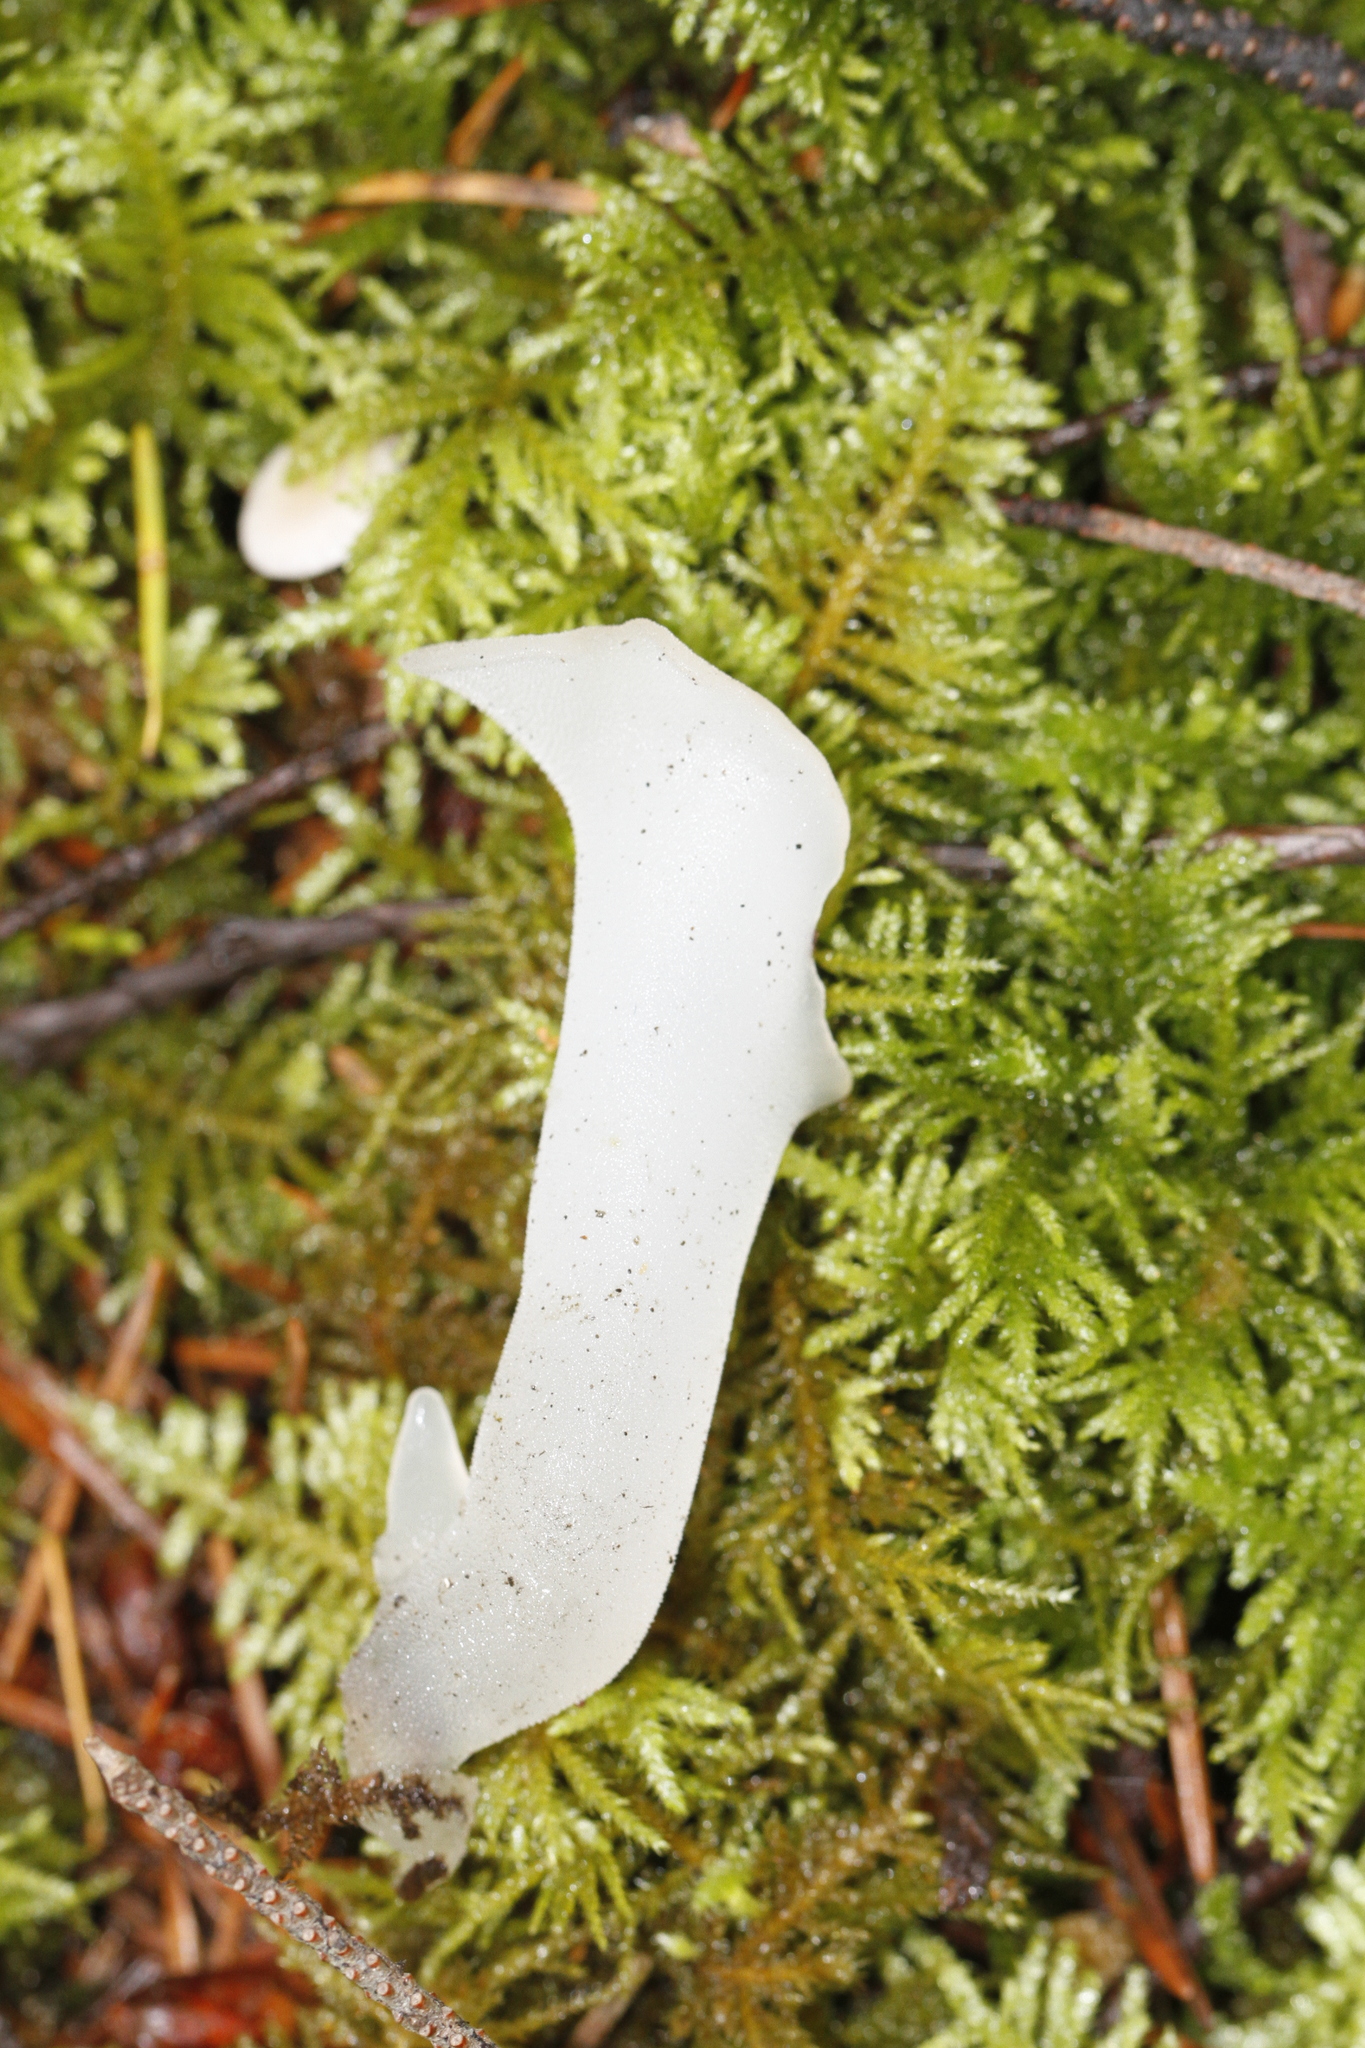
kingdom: Fungi
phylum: Basidiomycota
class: Agaricomycetes
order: Auriculariales
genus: Pseudohydnum
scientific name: Pseudohydnum gelatinosum
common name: Jelly tongue
